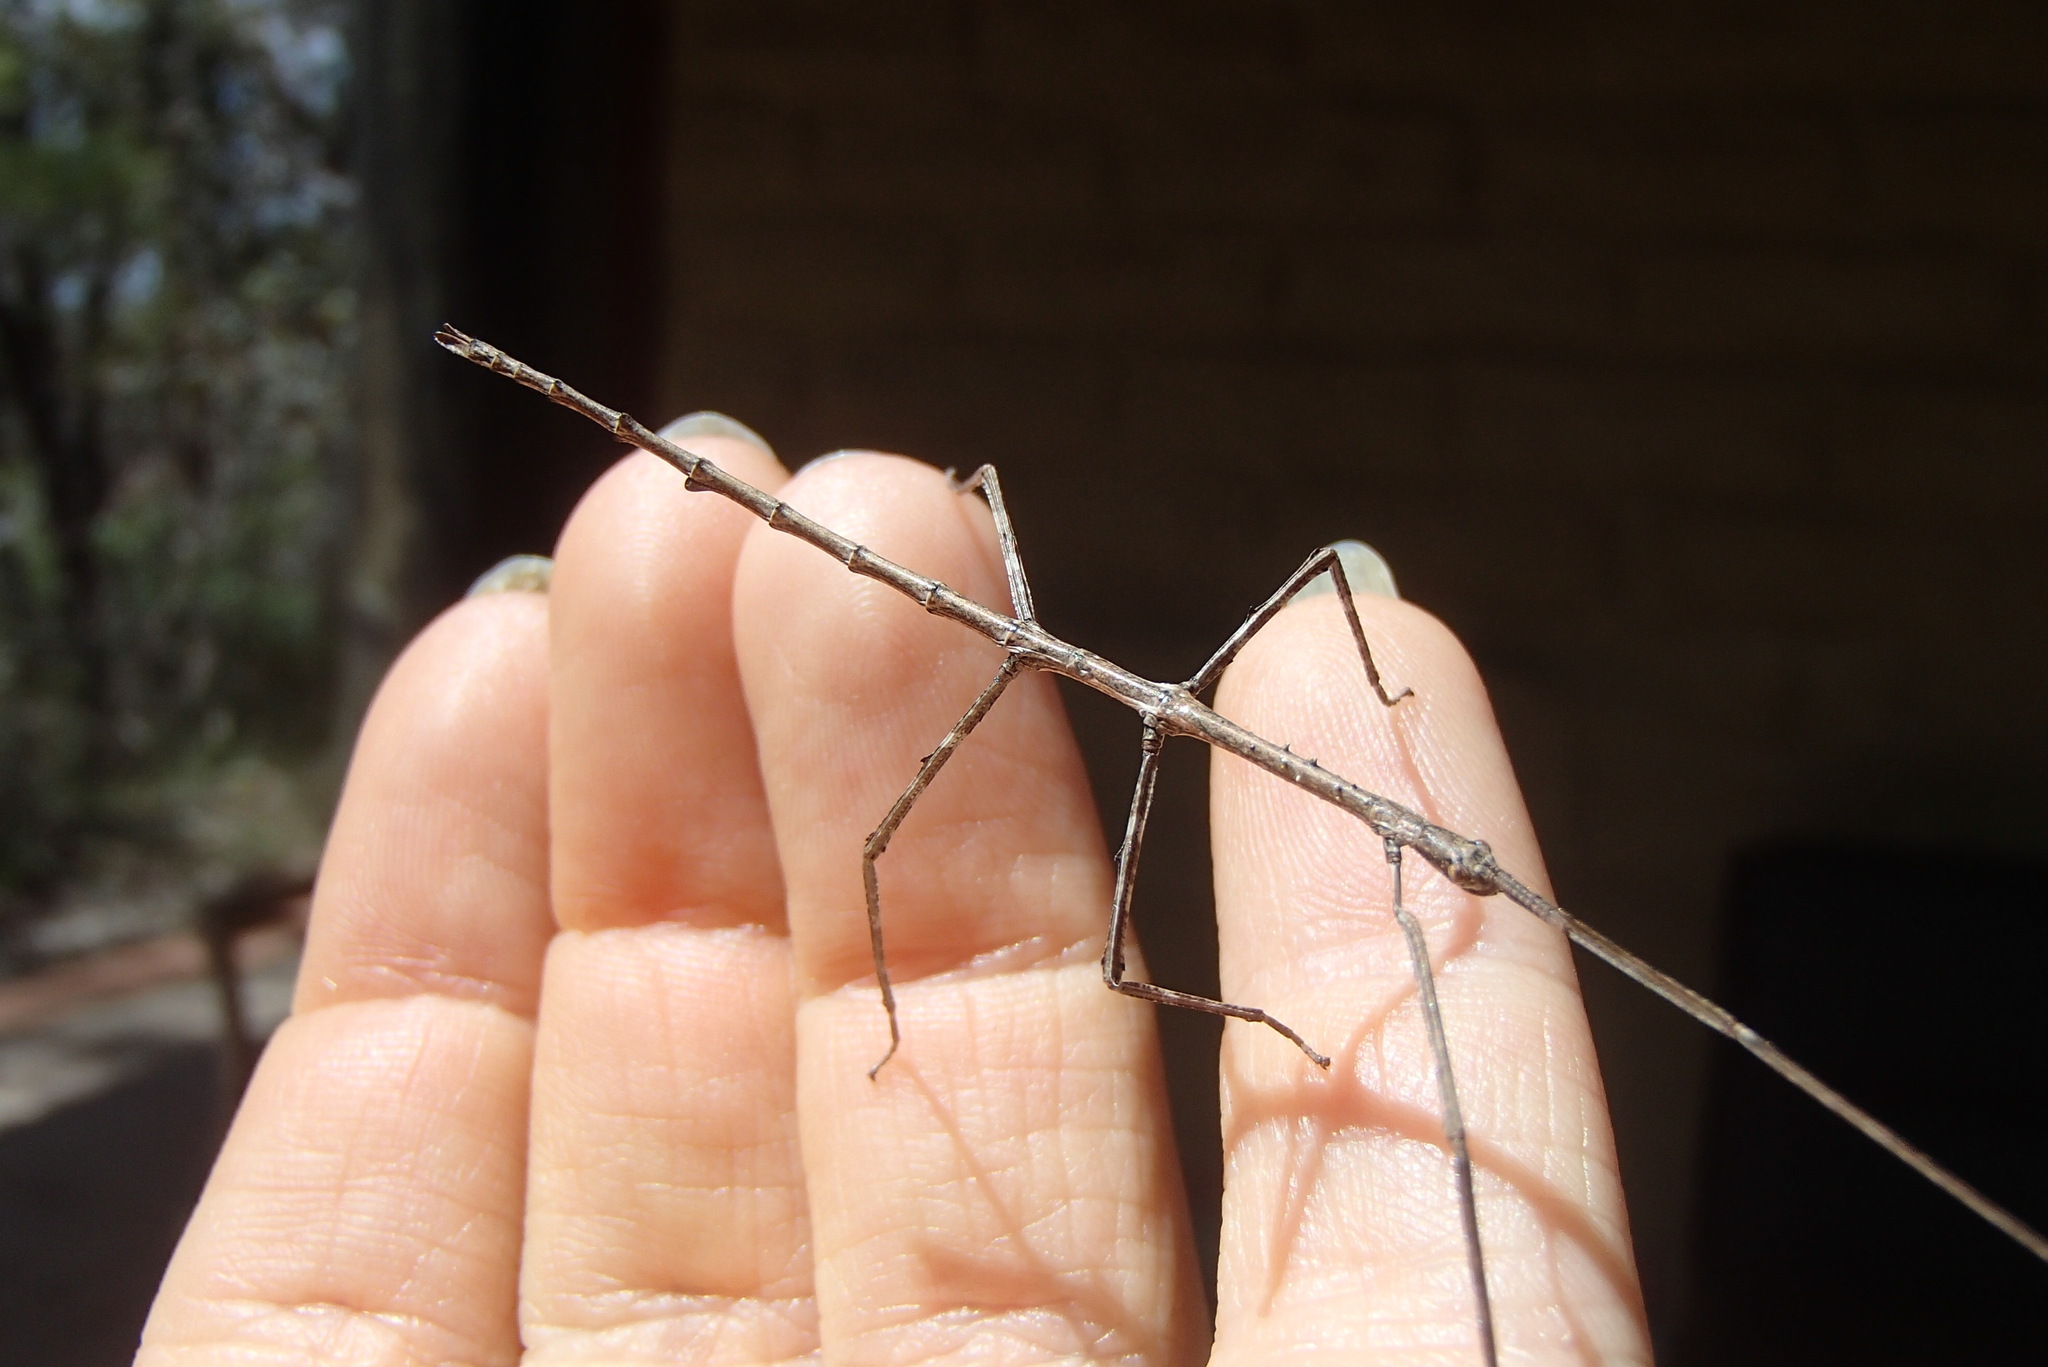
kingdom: Animalia
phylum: Arthropoda
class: Insecta
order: Phasmida
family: Phasmatidae
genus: Ctenomorpha
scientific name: Ctenomorpha marginipennis
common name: Margined-winged stick-insect
